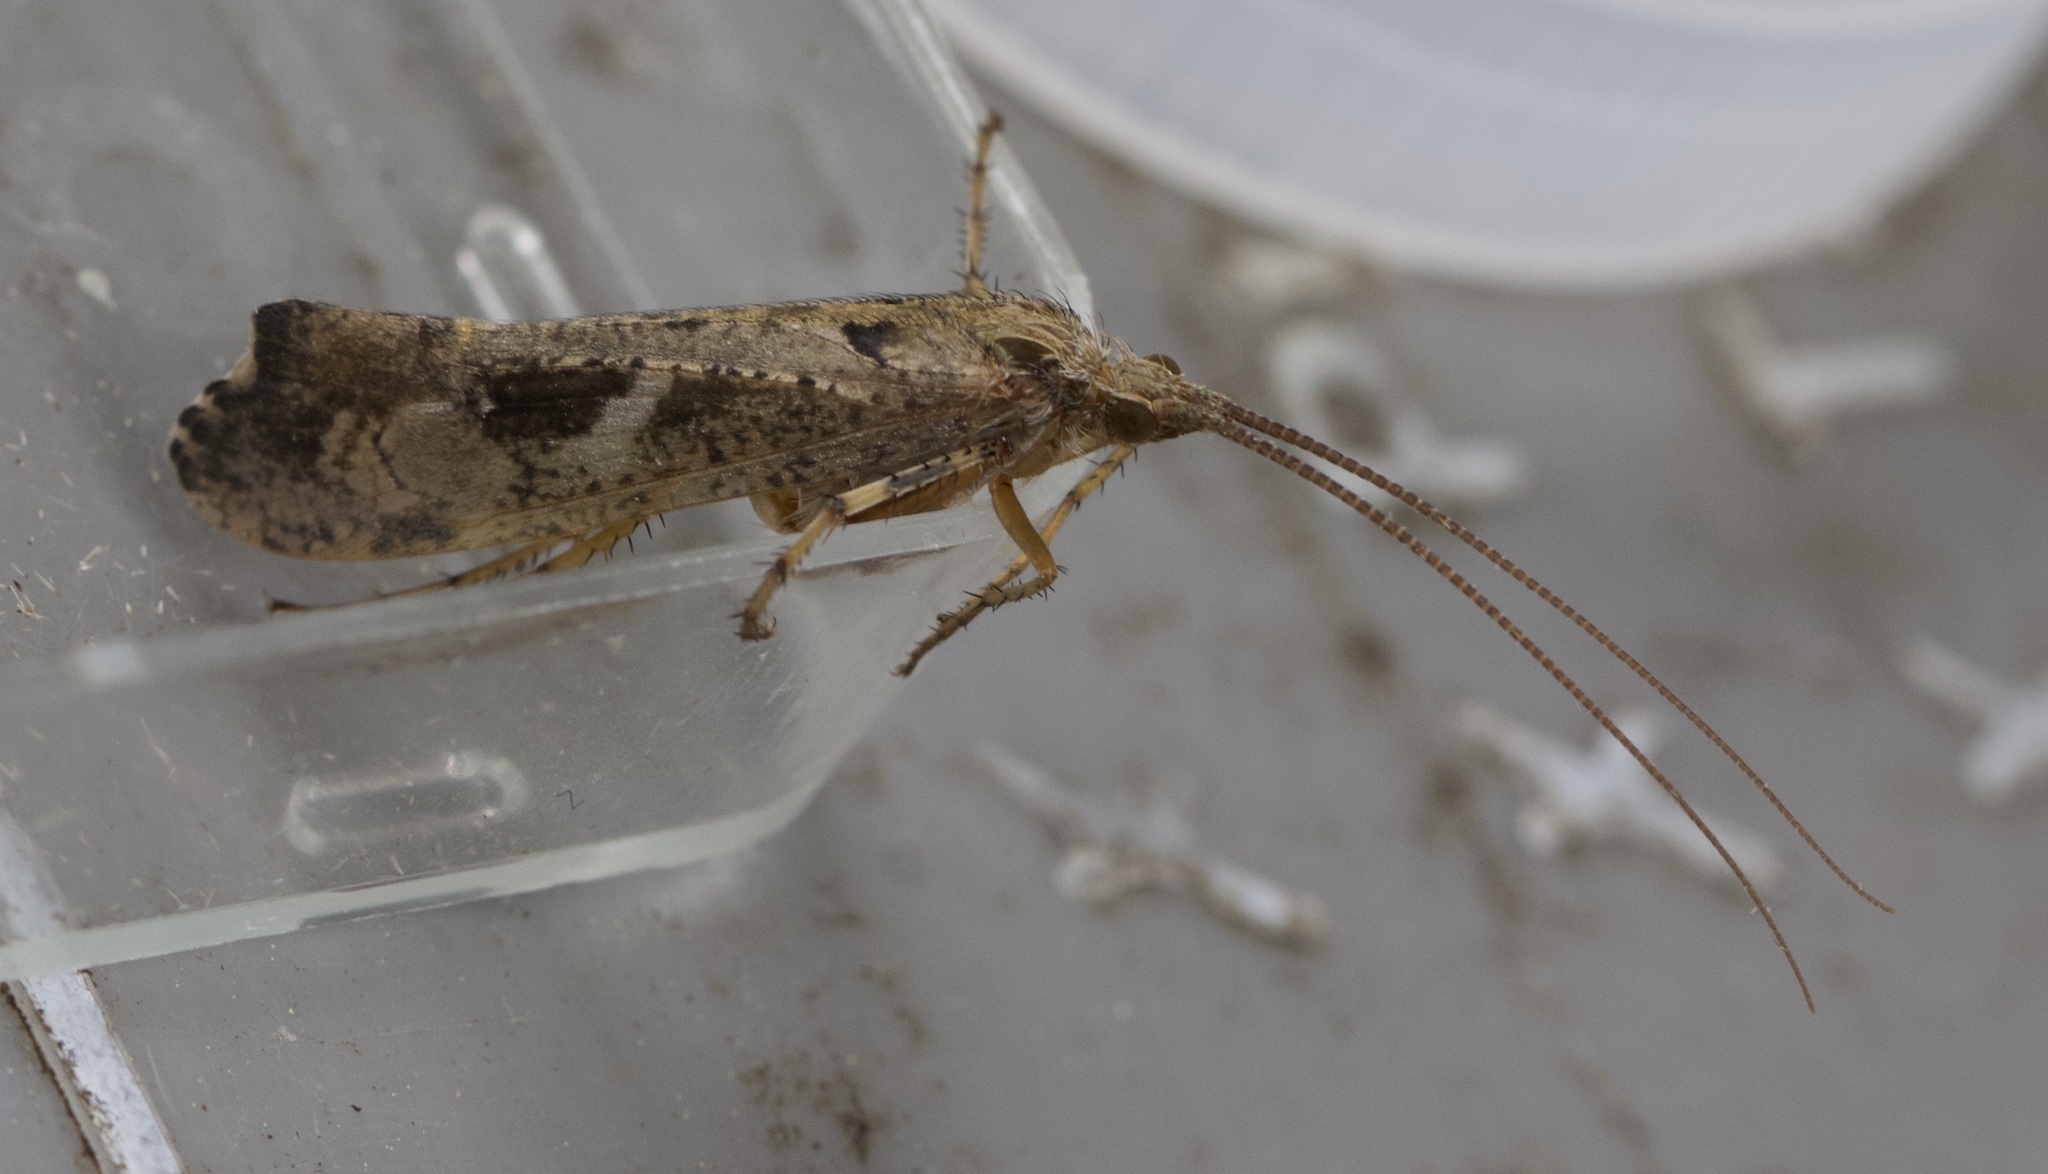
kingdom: Animalia
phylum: Arthropoda
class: Insecta
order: Trichoptera
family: Limnephilidae
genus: Glyphotaelius
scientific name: Glyphotaelius pellucidus
